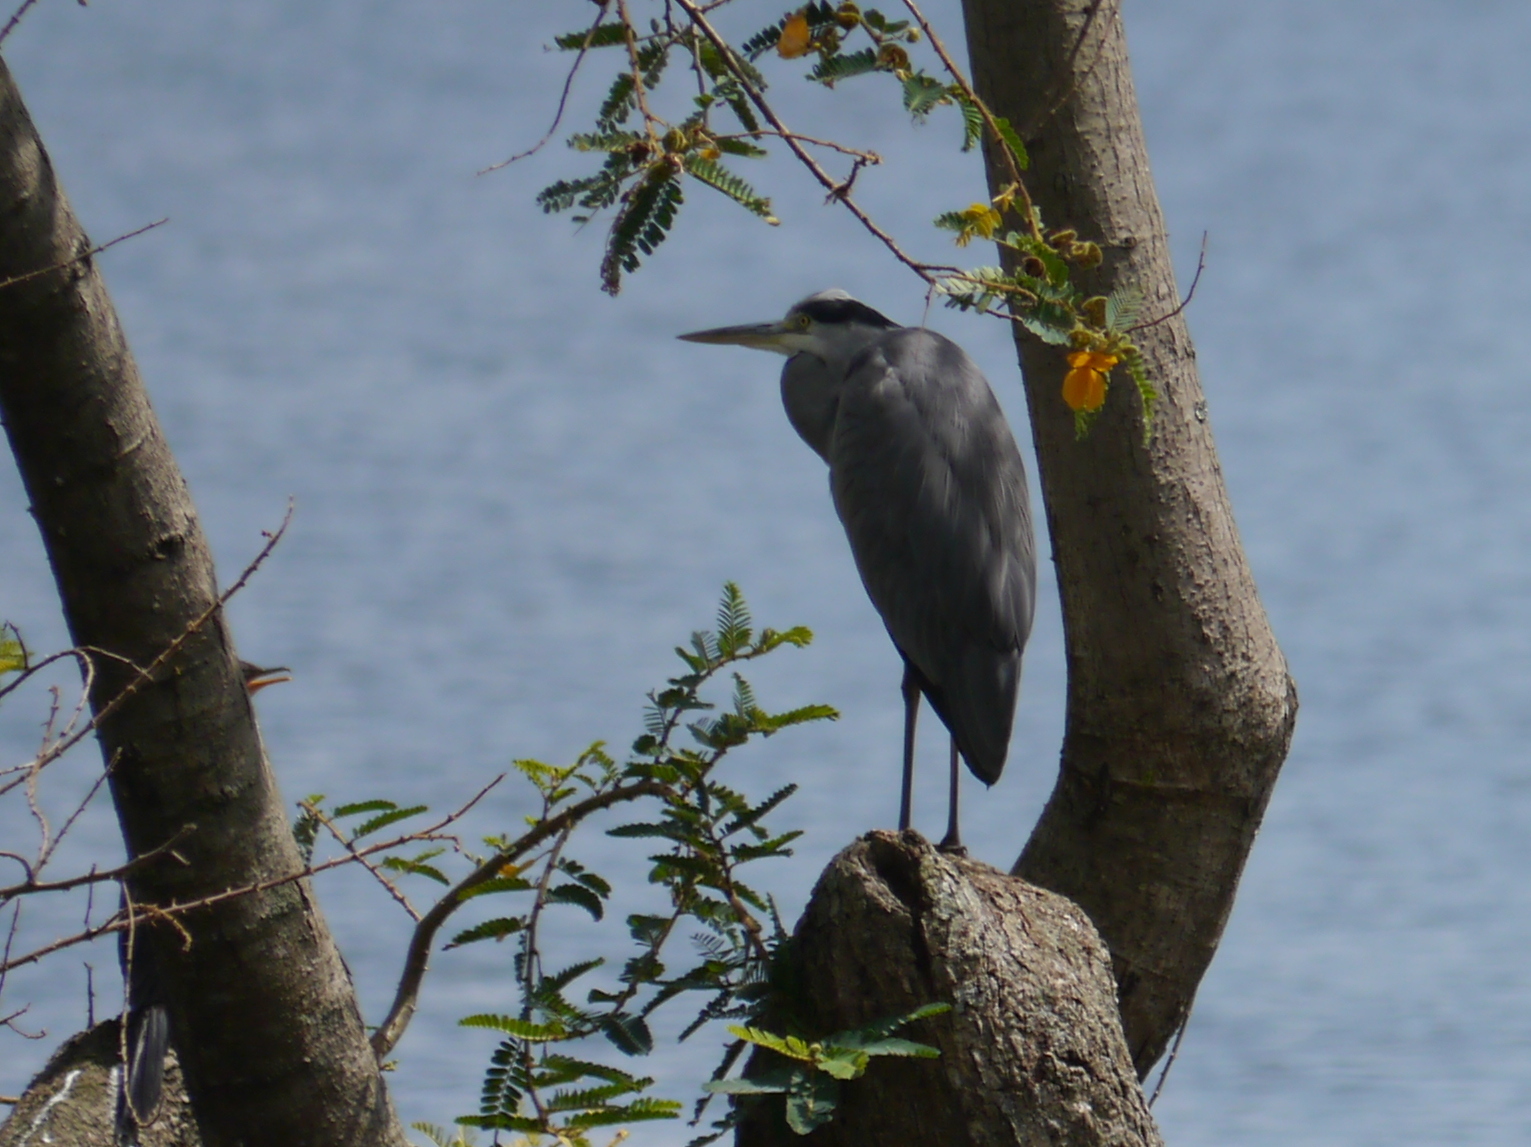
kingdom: Animalia
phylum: Chordata
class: Aves
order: Pelecaniformes
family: Ardeidae
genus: Ardea
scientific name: Ardea cinerea
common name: Grey heron
